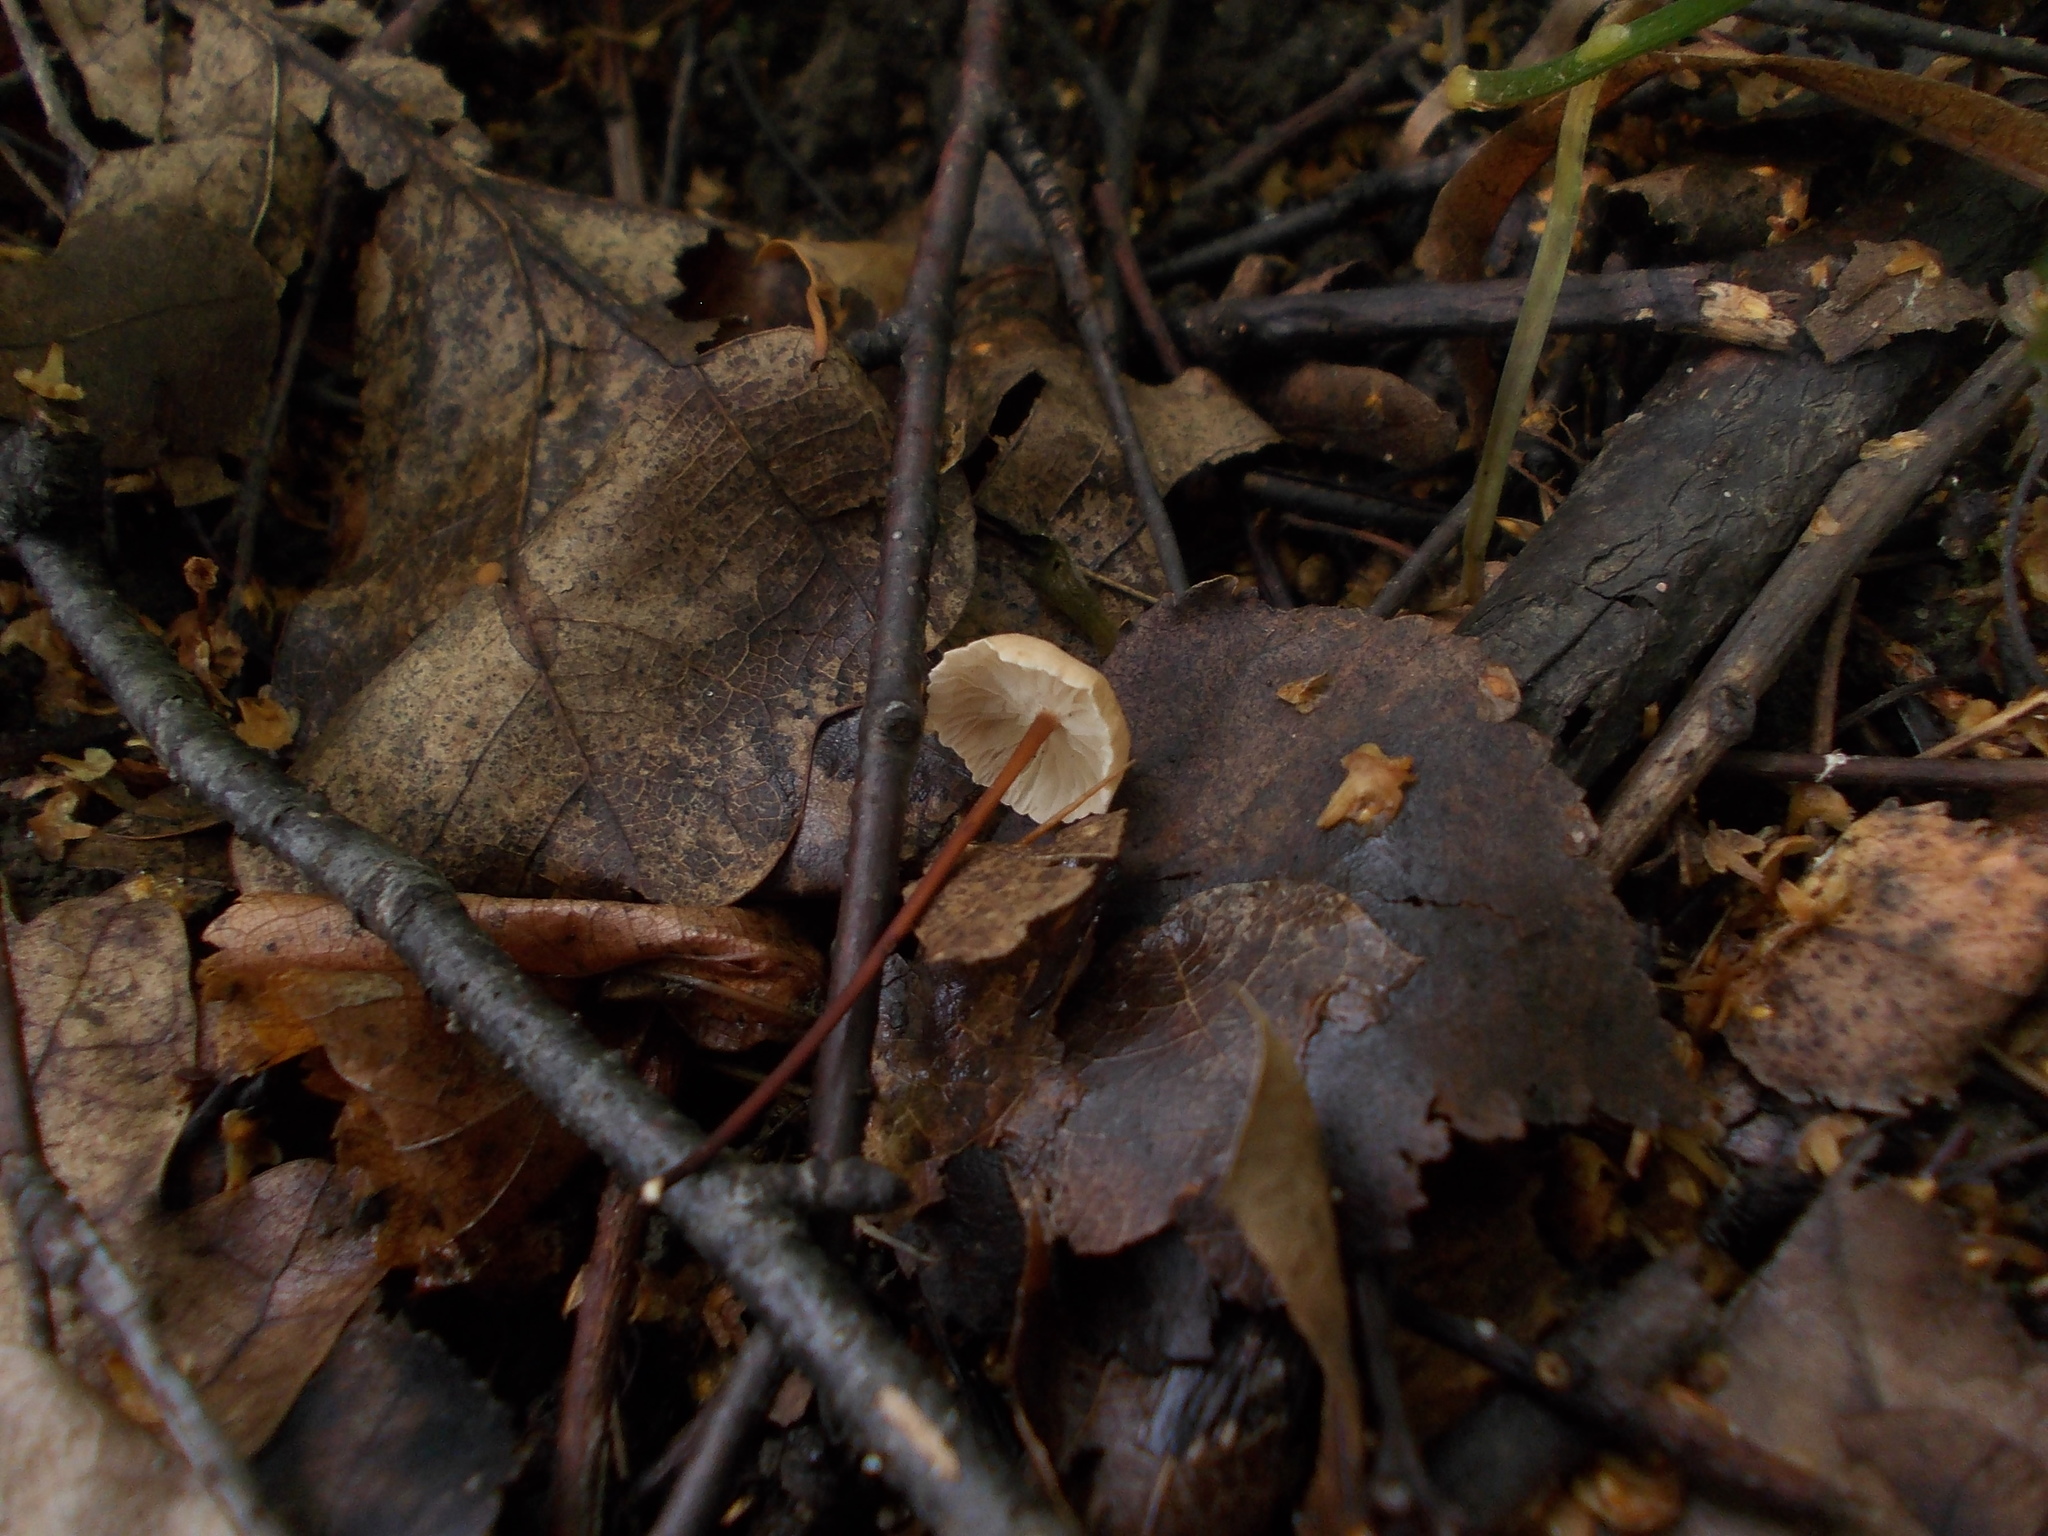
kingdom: Fungi
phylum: Basidiomycota
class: Agaricomycetes
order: Agaricales
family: Omphalotaceae
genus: Mycetinis
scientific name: Mycetinis scorodonius
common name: Vampires bane
